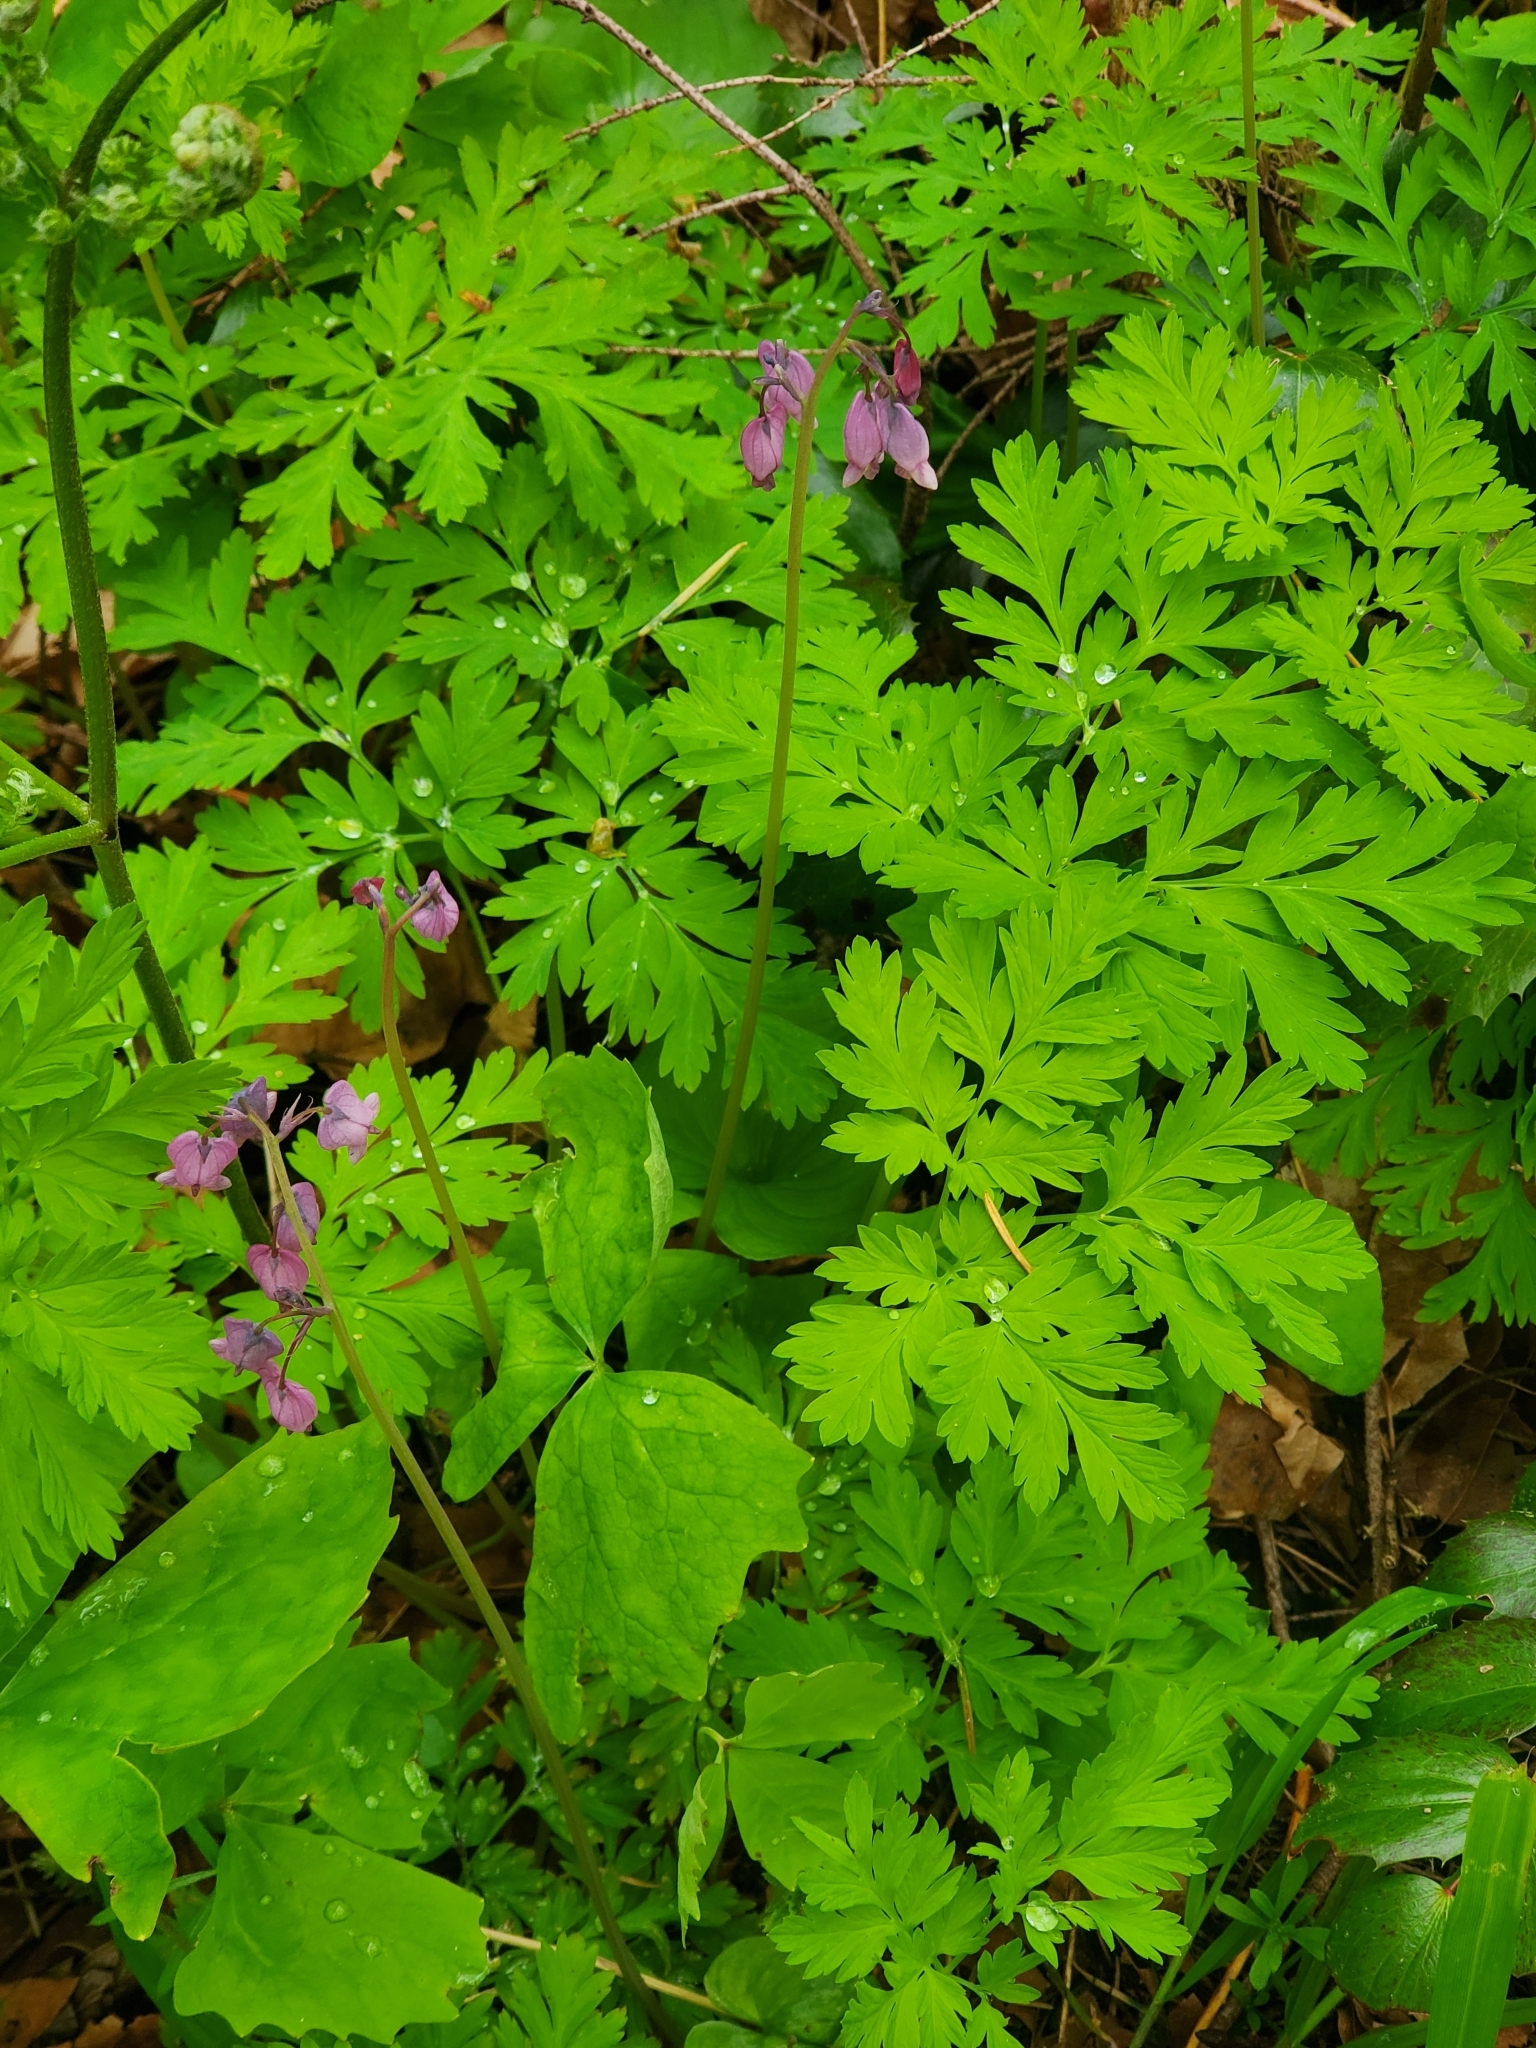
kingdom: Plantae
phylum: Tracheophyta
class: Magnoliopsida
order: Ranunculales
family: Papaveraceae
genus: Dicentra
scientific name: Dicentra formosa
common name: Bleeding-heart
